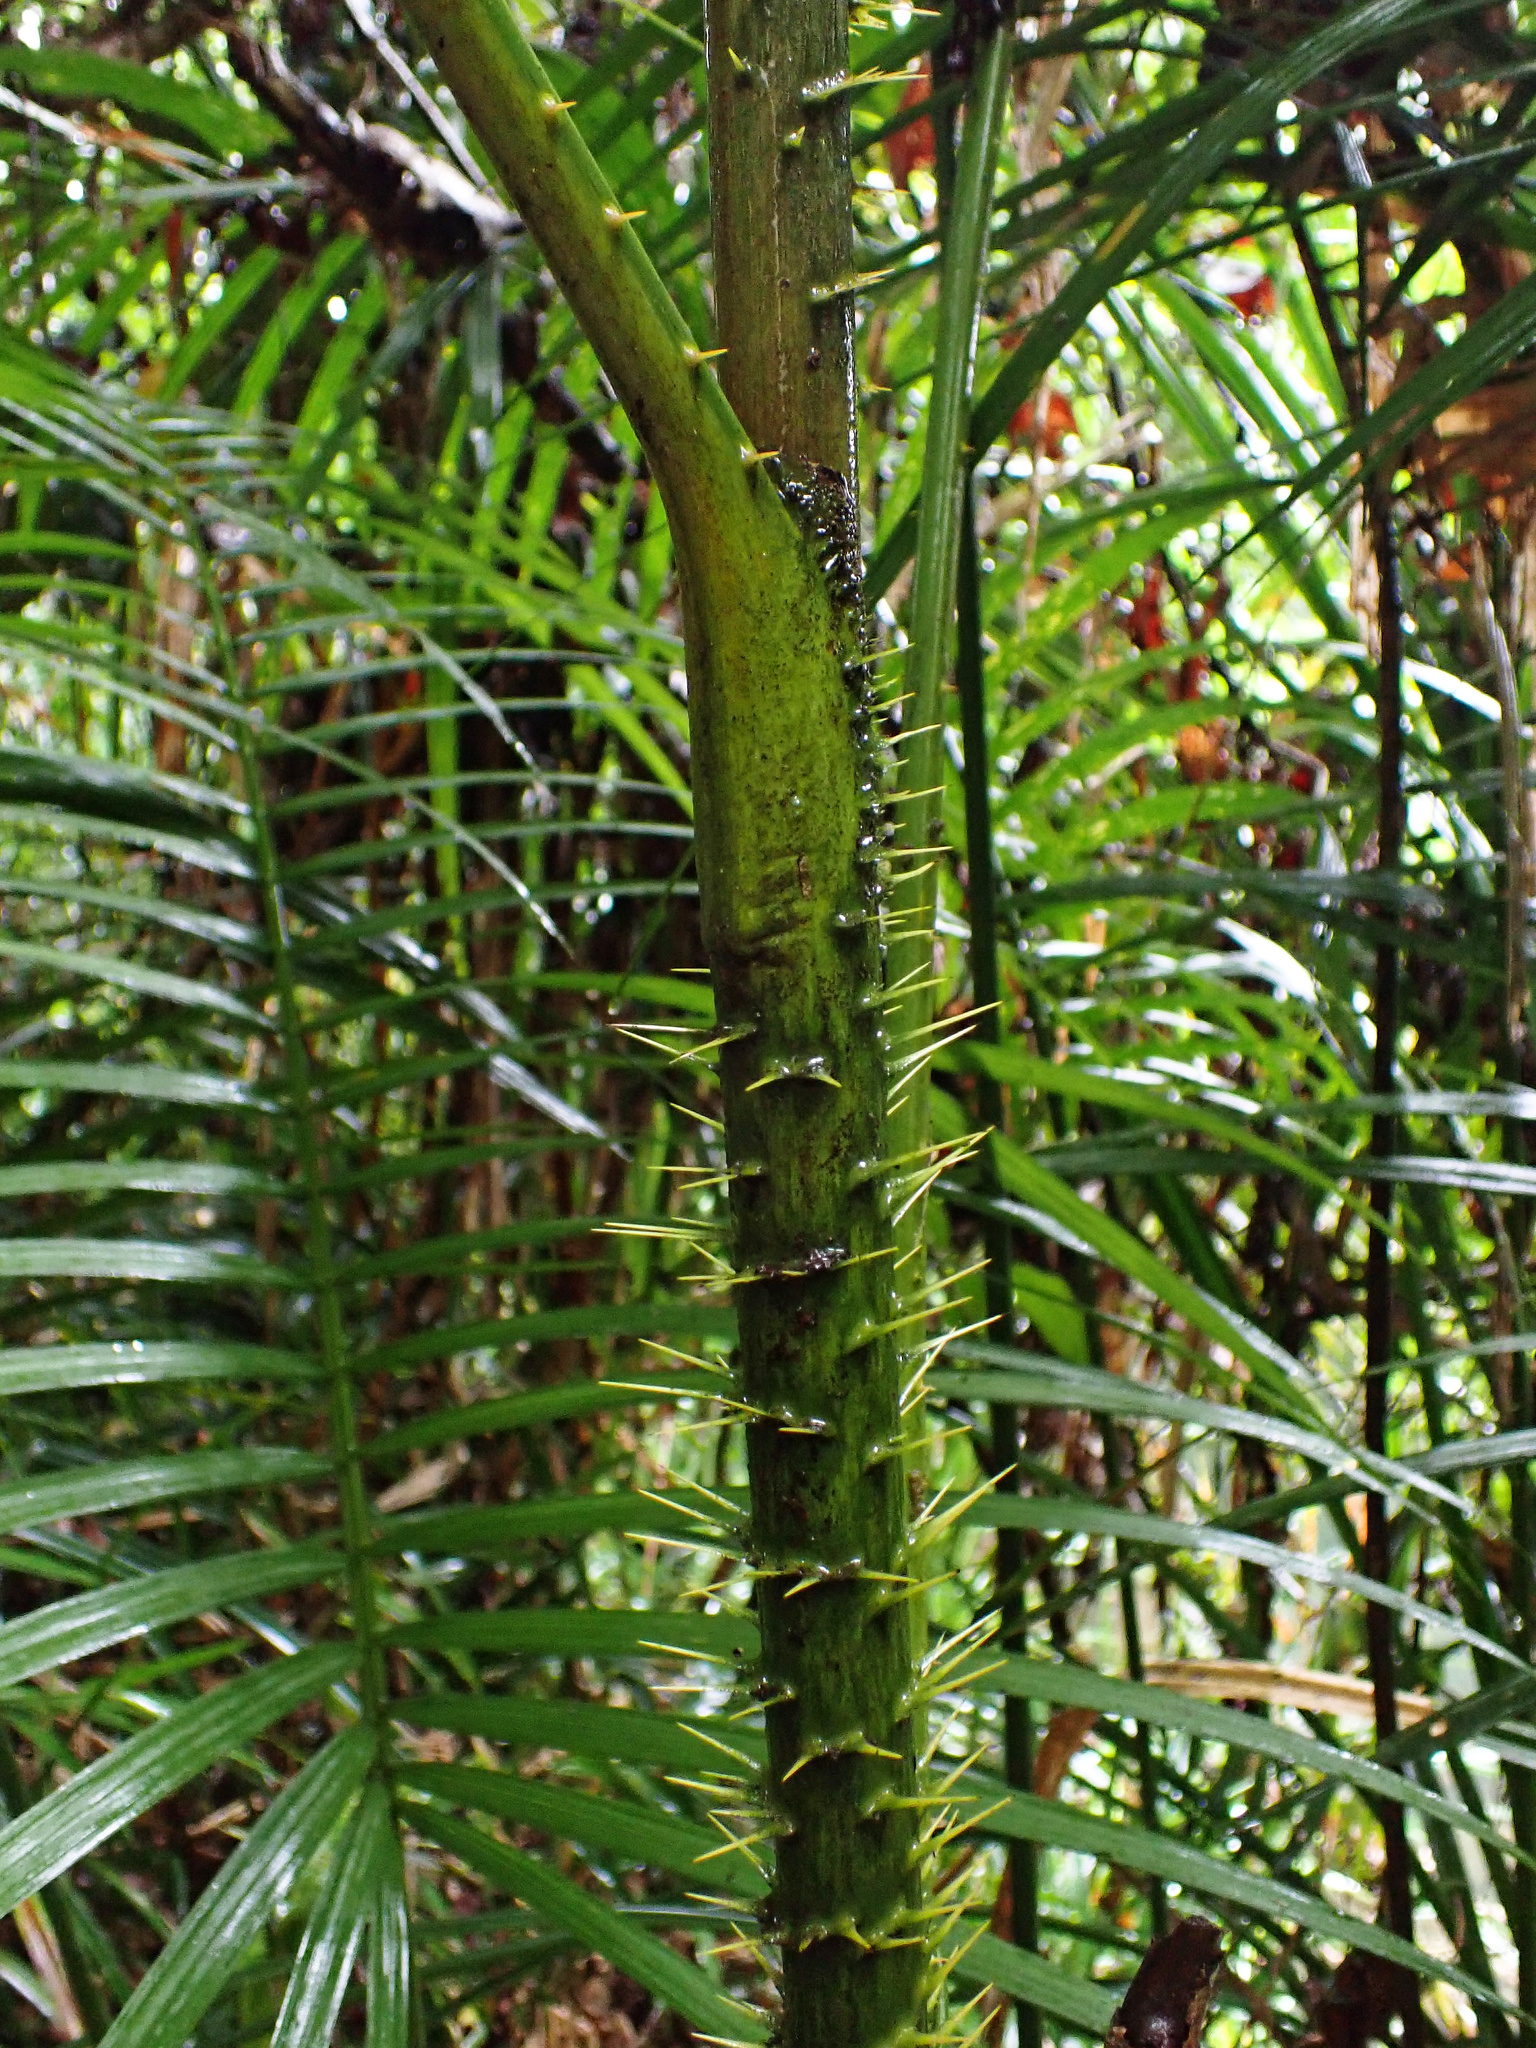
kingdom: Plantae
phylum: Tracheophyta
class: Liliopsida
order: Arecales
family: Arecaceae
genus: Calamus
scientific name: Calamus moti
